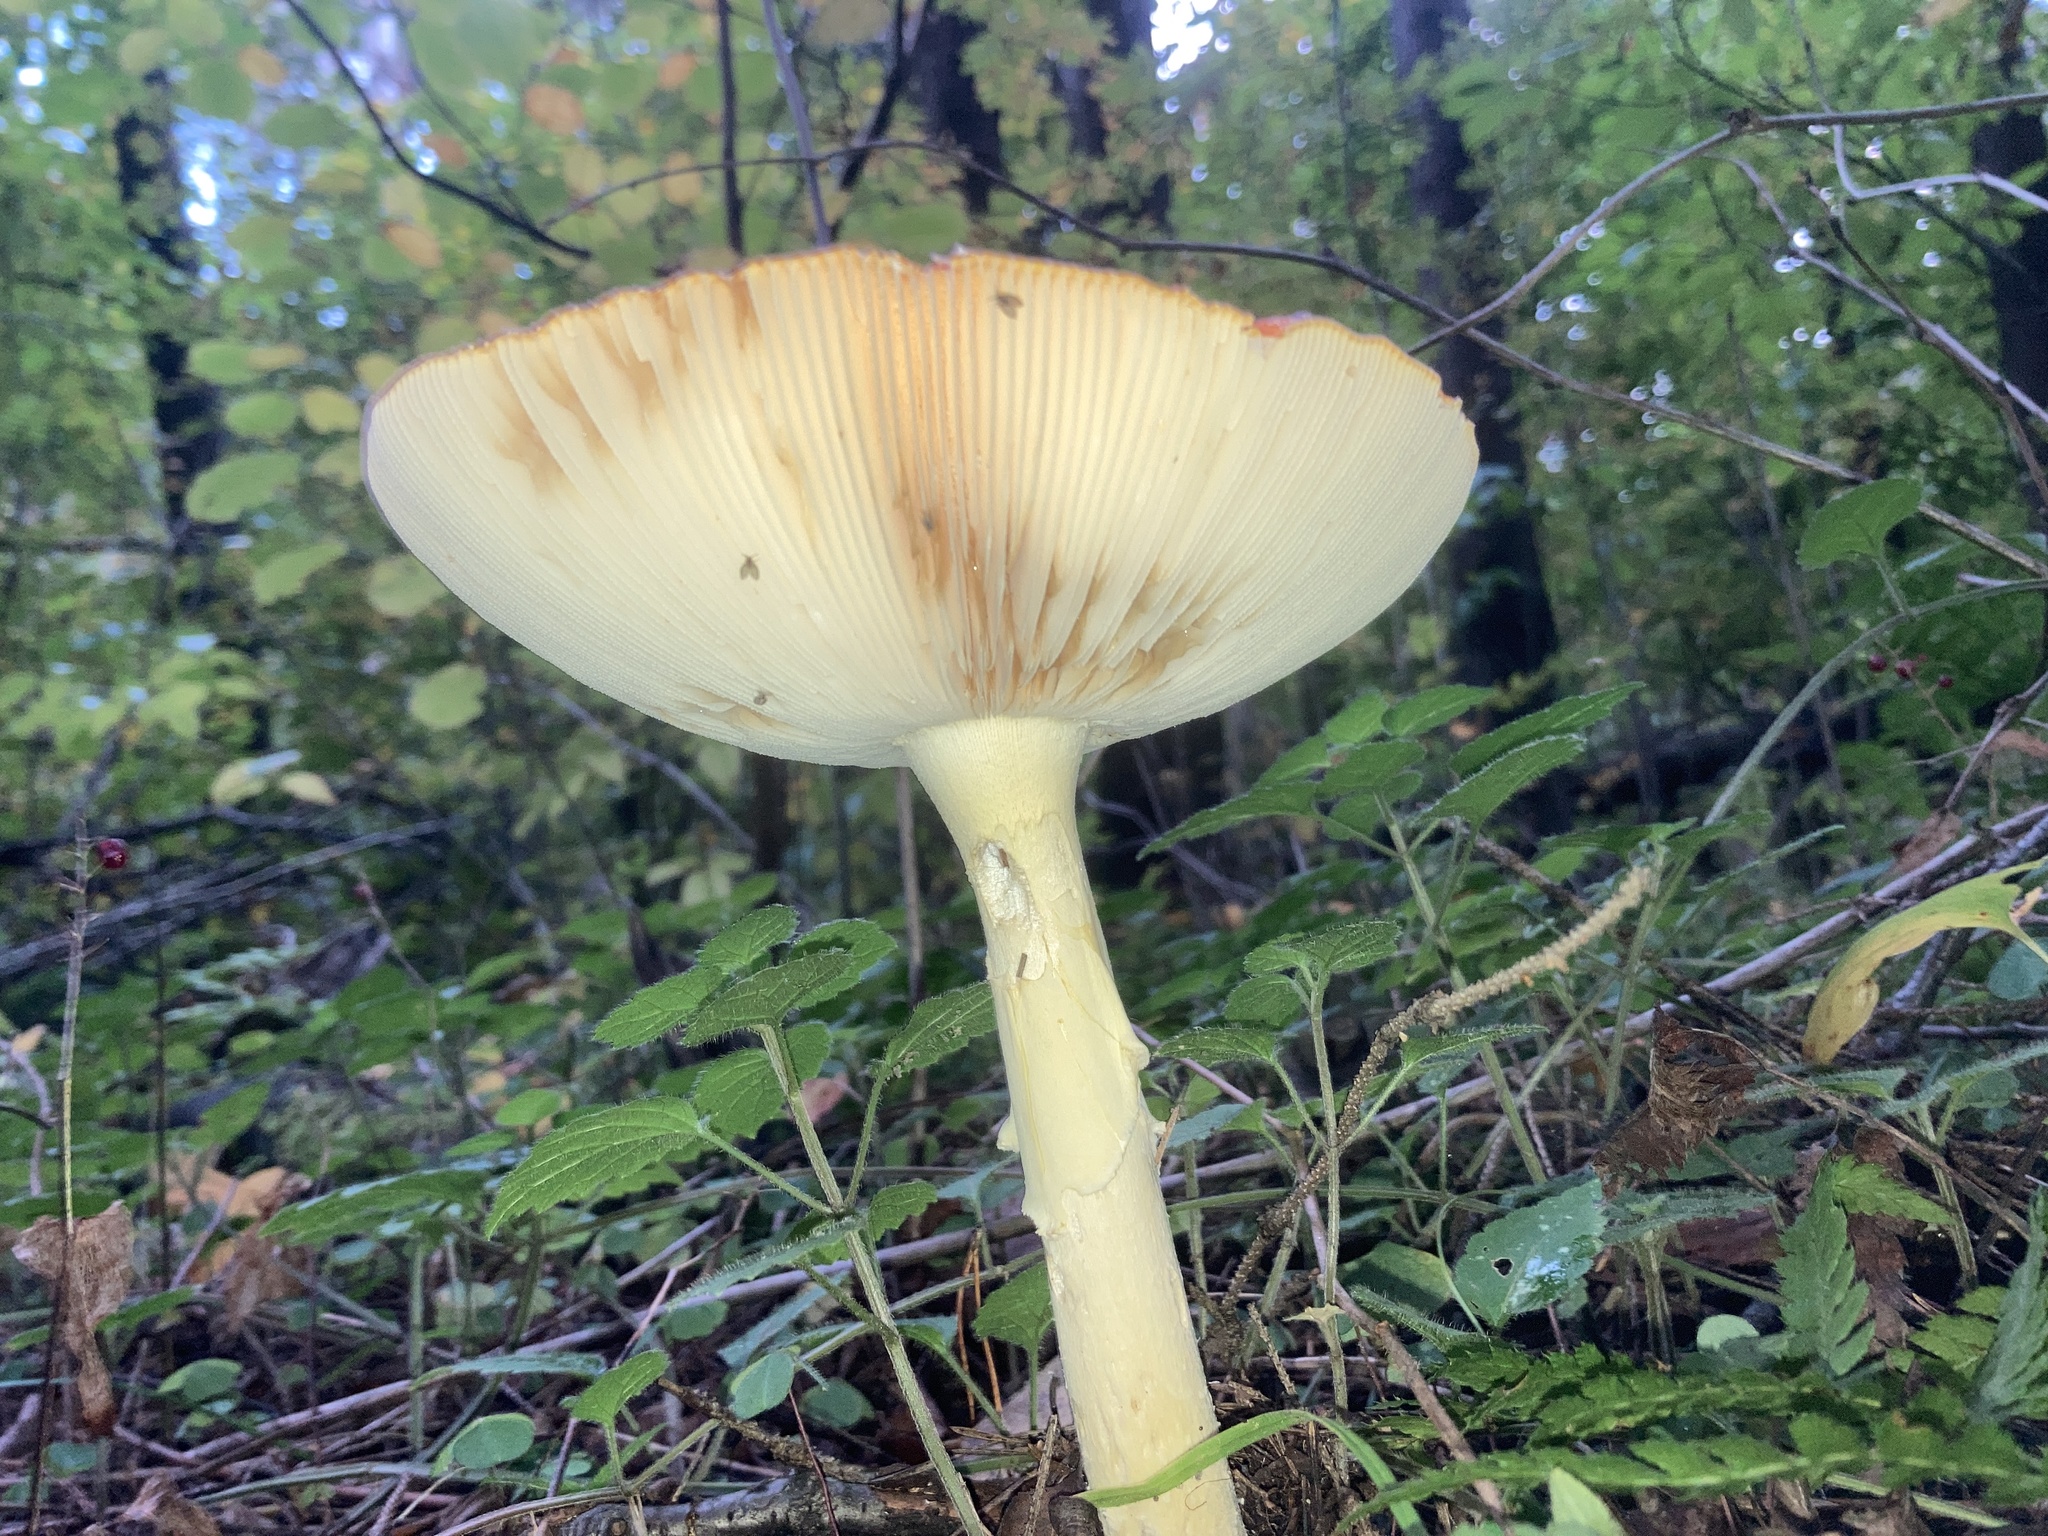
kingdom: Fungi
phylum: Basidiomycota
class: Agaricomycetes
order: Agaricales
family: Amanitaceae
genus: Amanita
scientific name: Amanita muscaria
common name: Fly agaric
